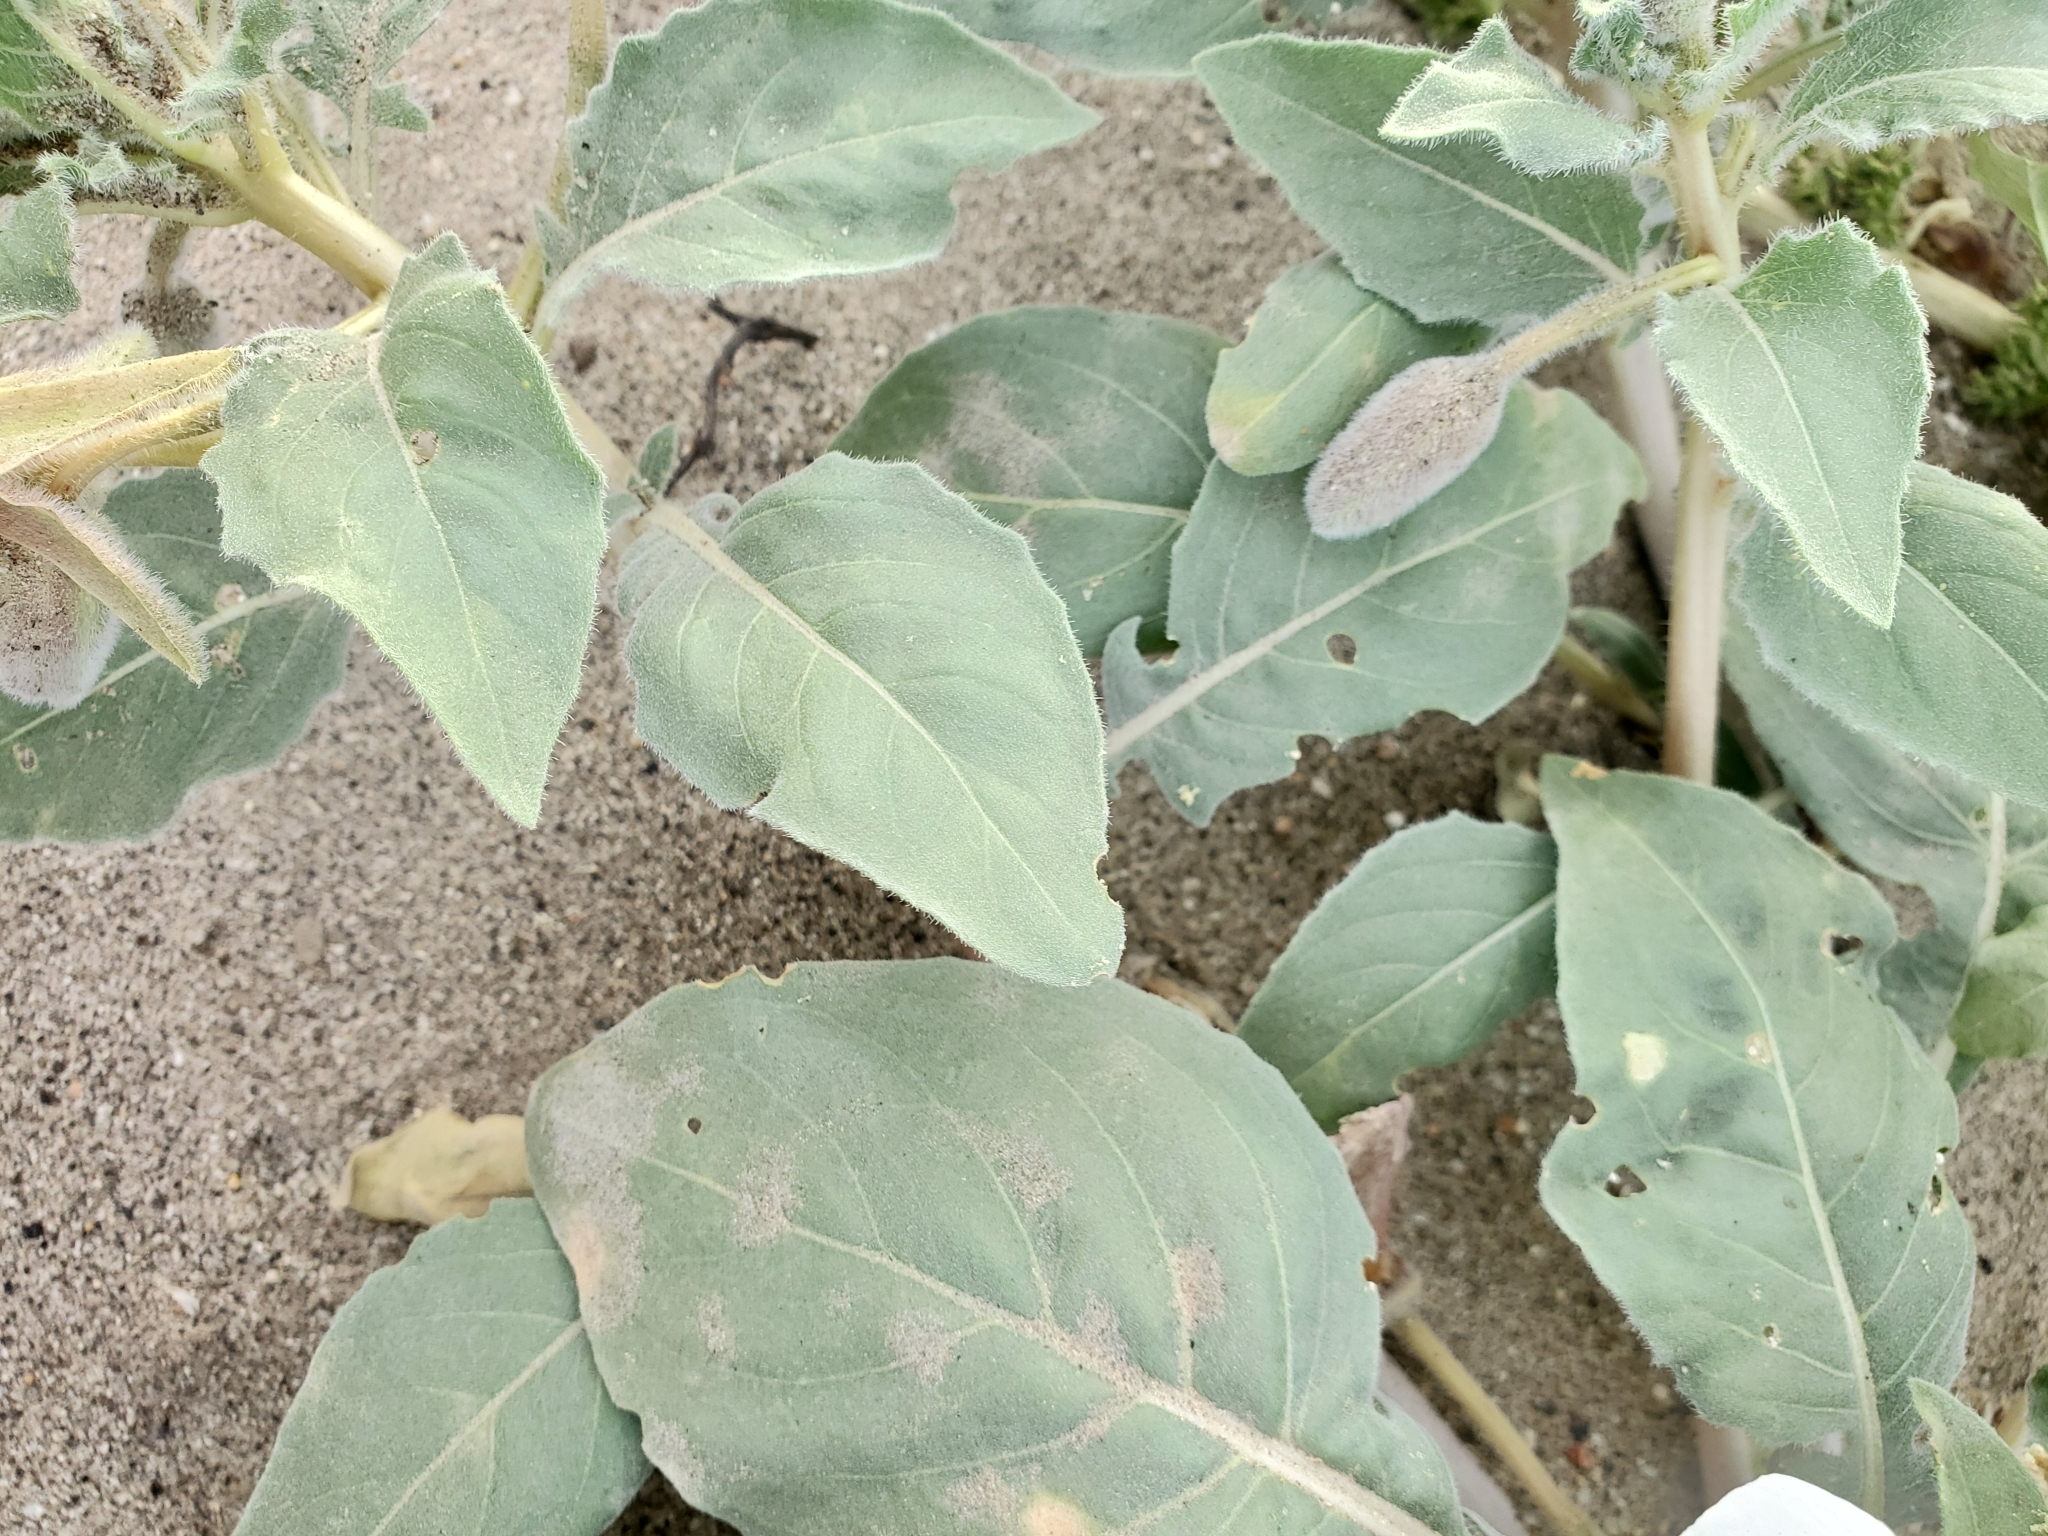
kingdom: Plantae
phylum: Tracheophyta
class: Magnoliopsida
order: Myrtales
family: Onagraceae
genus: Oenothera
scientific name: Oenothera deltoides
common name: Basket evening-primrose
